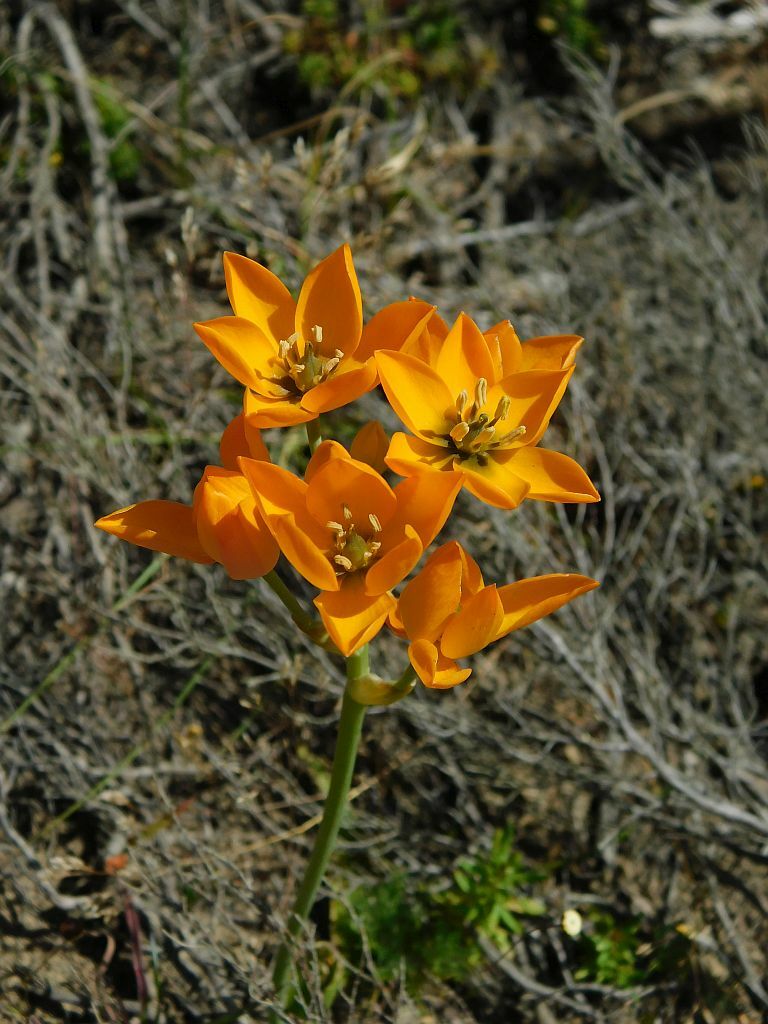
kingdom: Plantae
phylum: Tracheophyta
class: Liliopsida
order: Asparagales
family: Asparagaceae
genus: Ornithogalum
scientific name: Ornithogalum dubium
